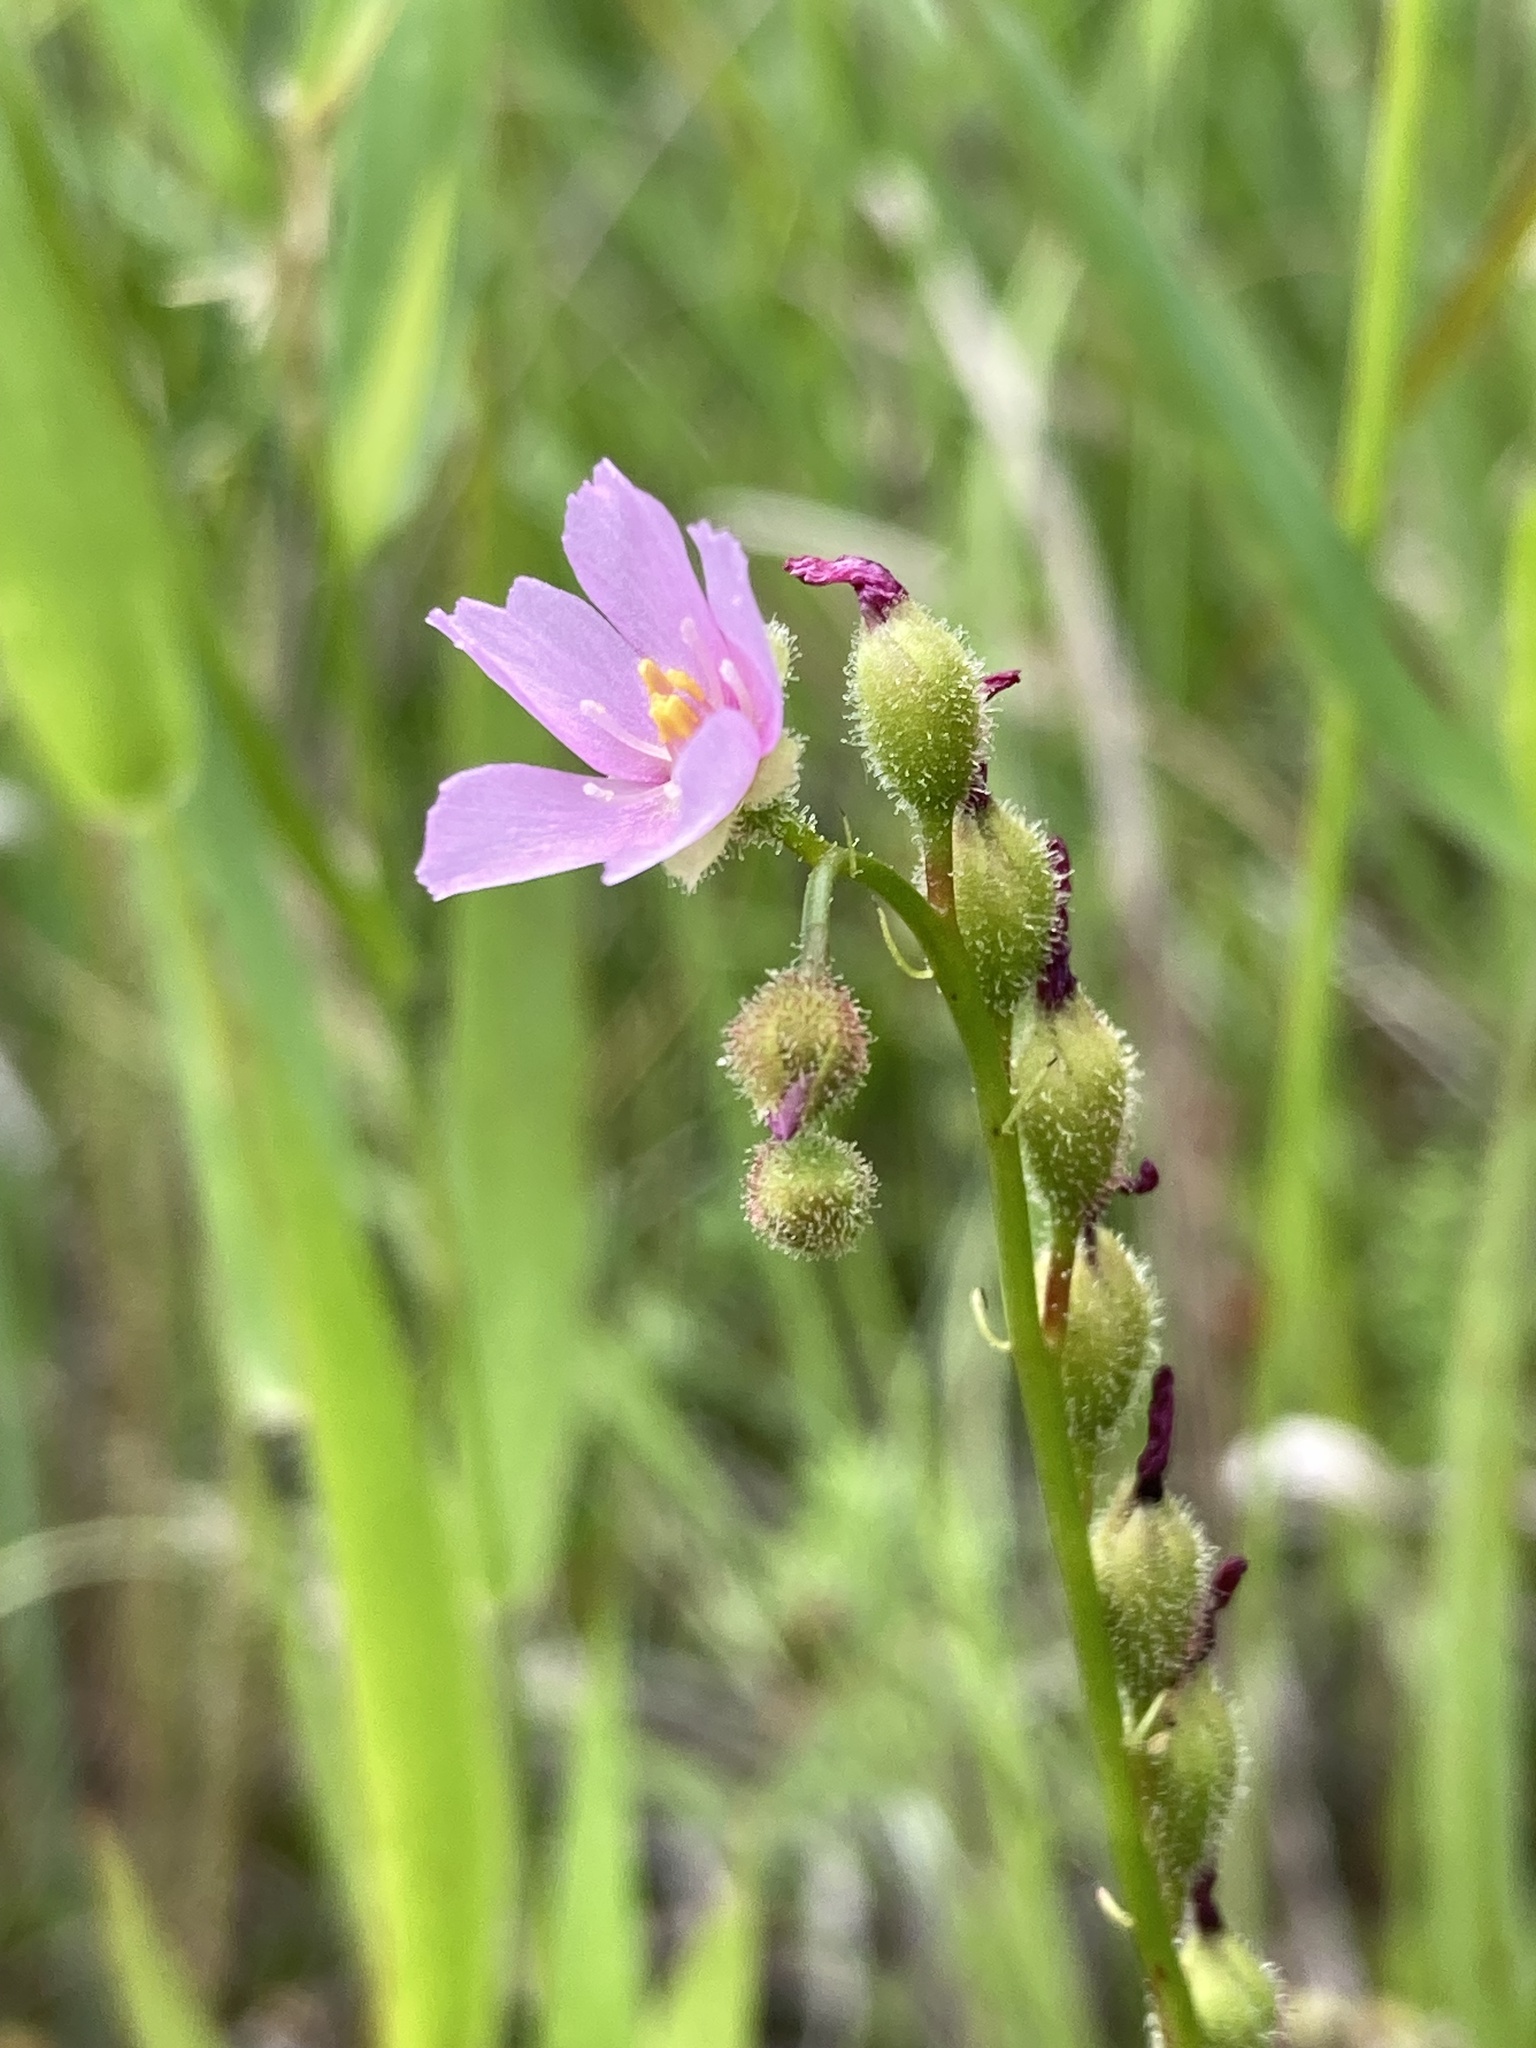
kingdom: Plantae
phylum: Tracheophyta
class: Magnoliopsida
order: Caryophyllales
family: Droseraceae
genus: Drosera
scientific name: Drosera filiformis
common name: Dew-thread
